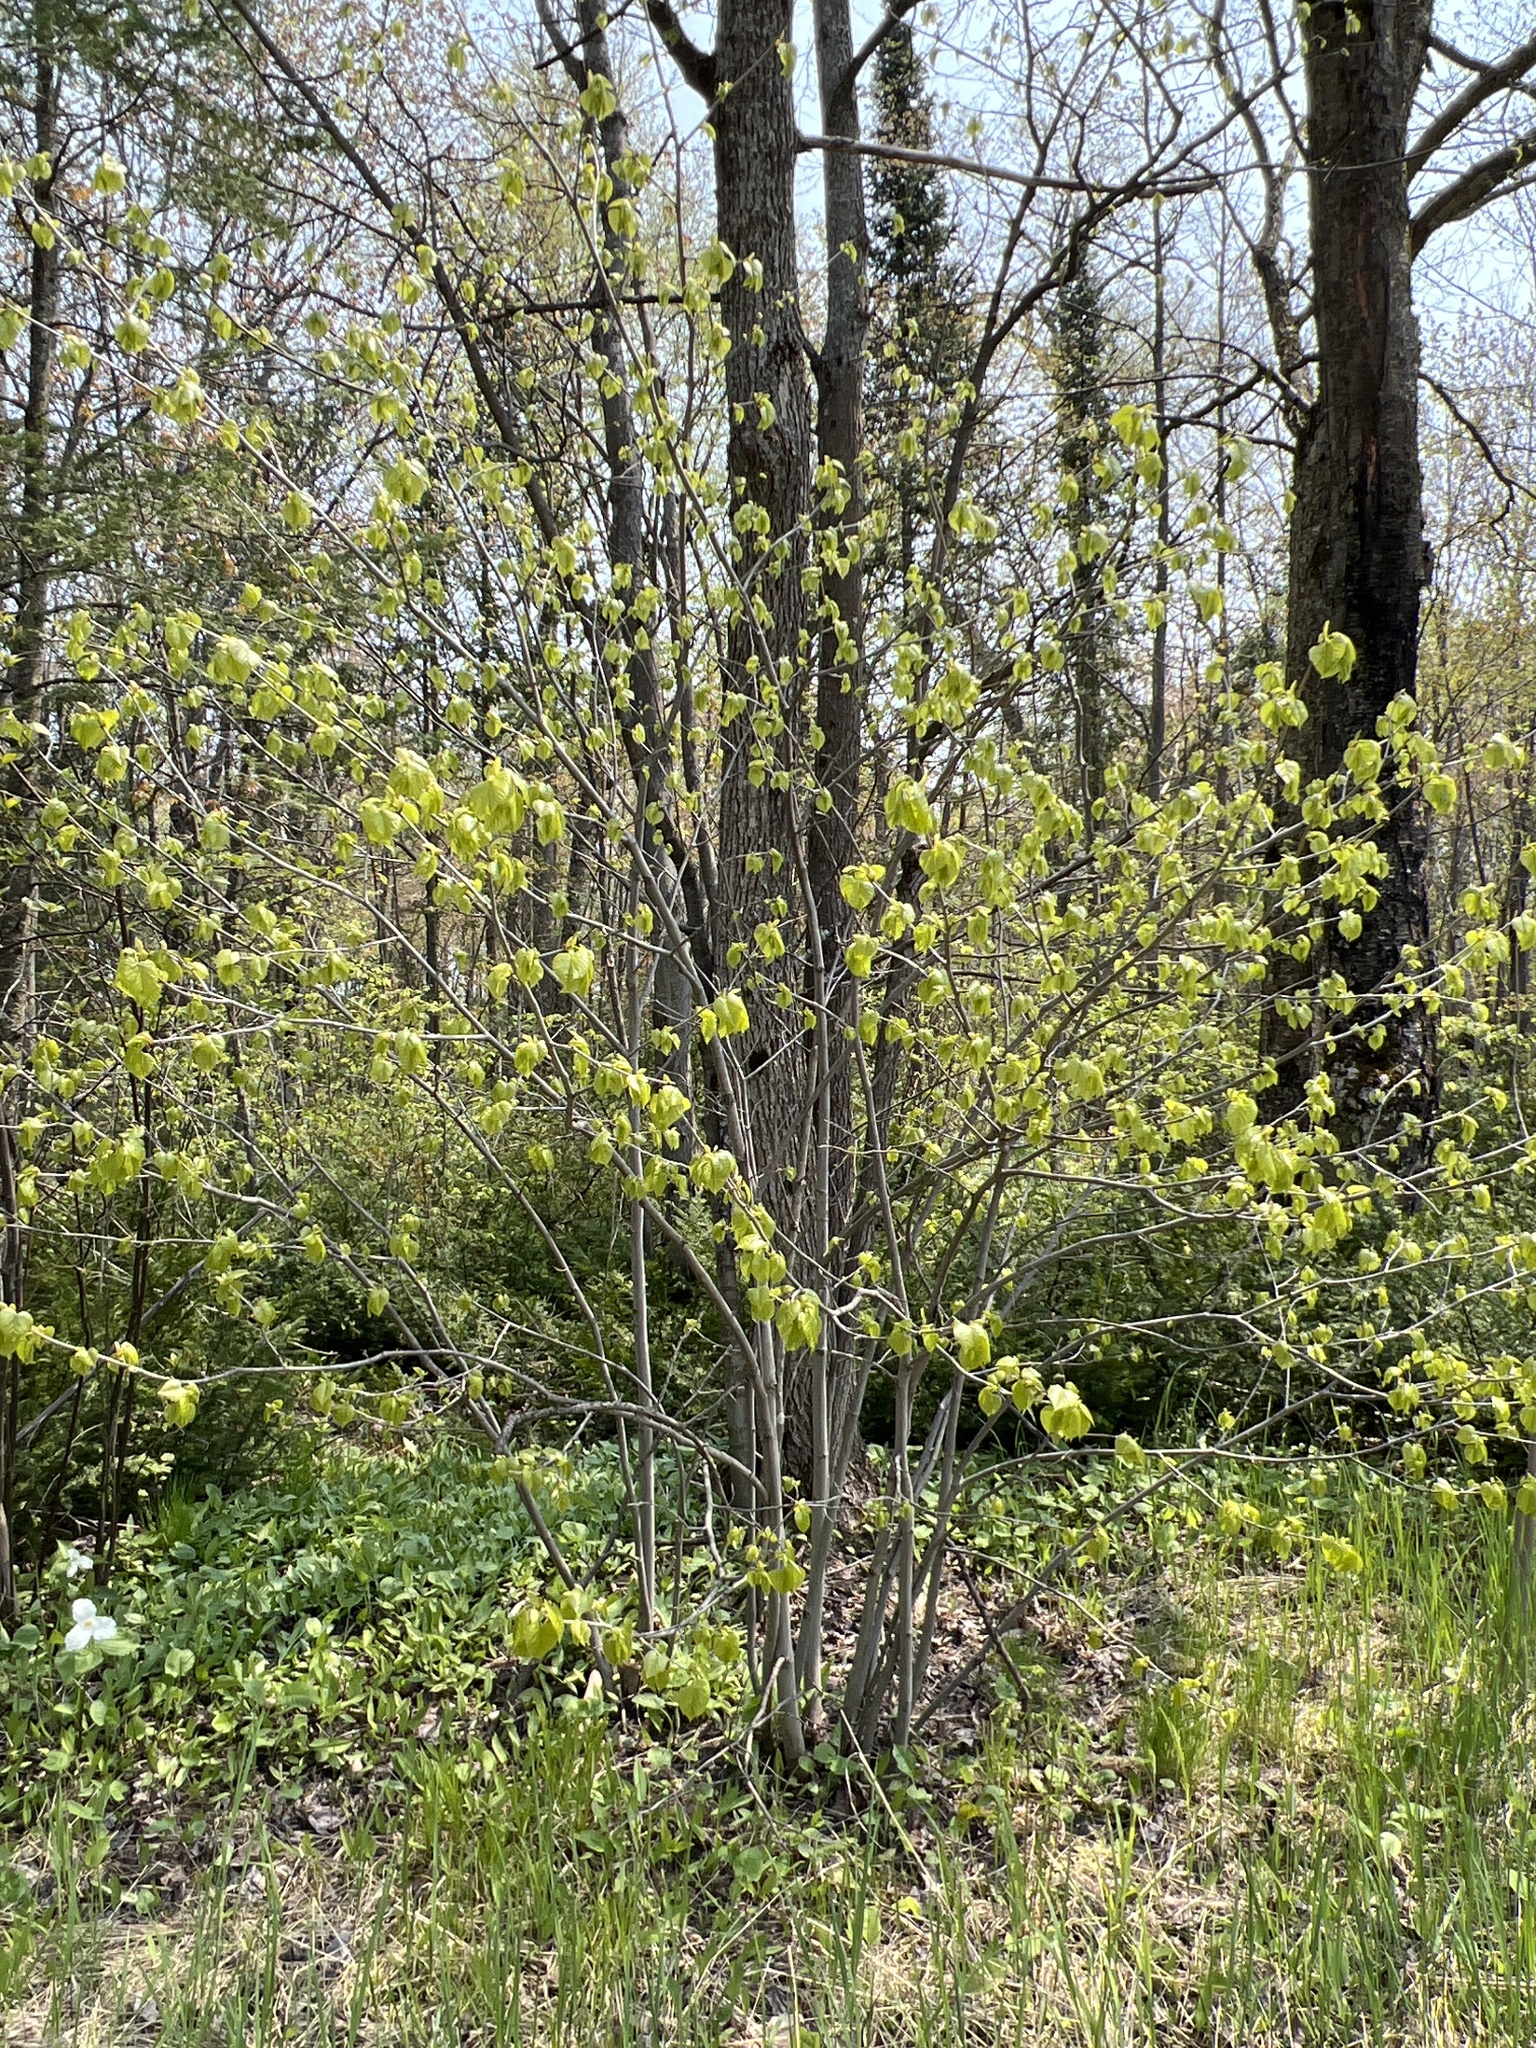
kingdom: Plantae
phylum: Tracheophyta
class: Magnoliopsida
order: Malvales
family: Malvaceae
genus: Tilia
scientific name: Tilia americana
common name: Basswood
